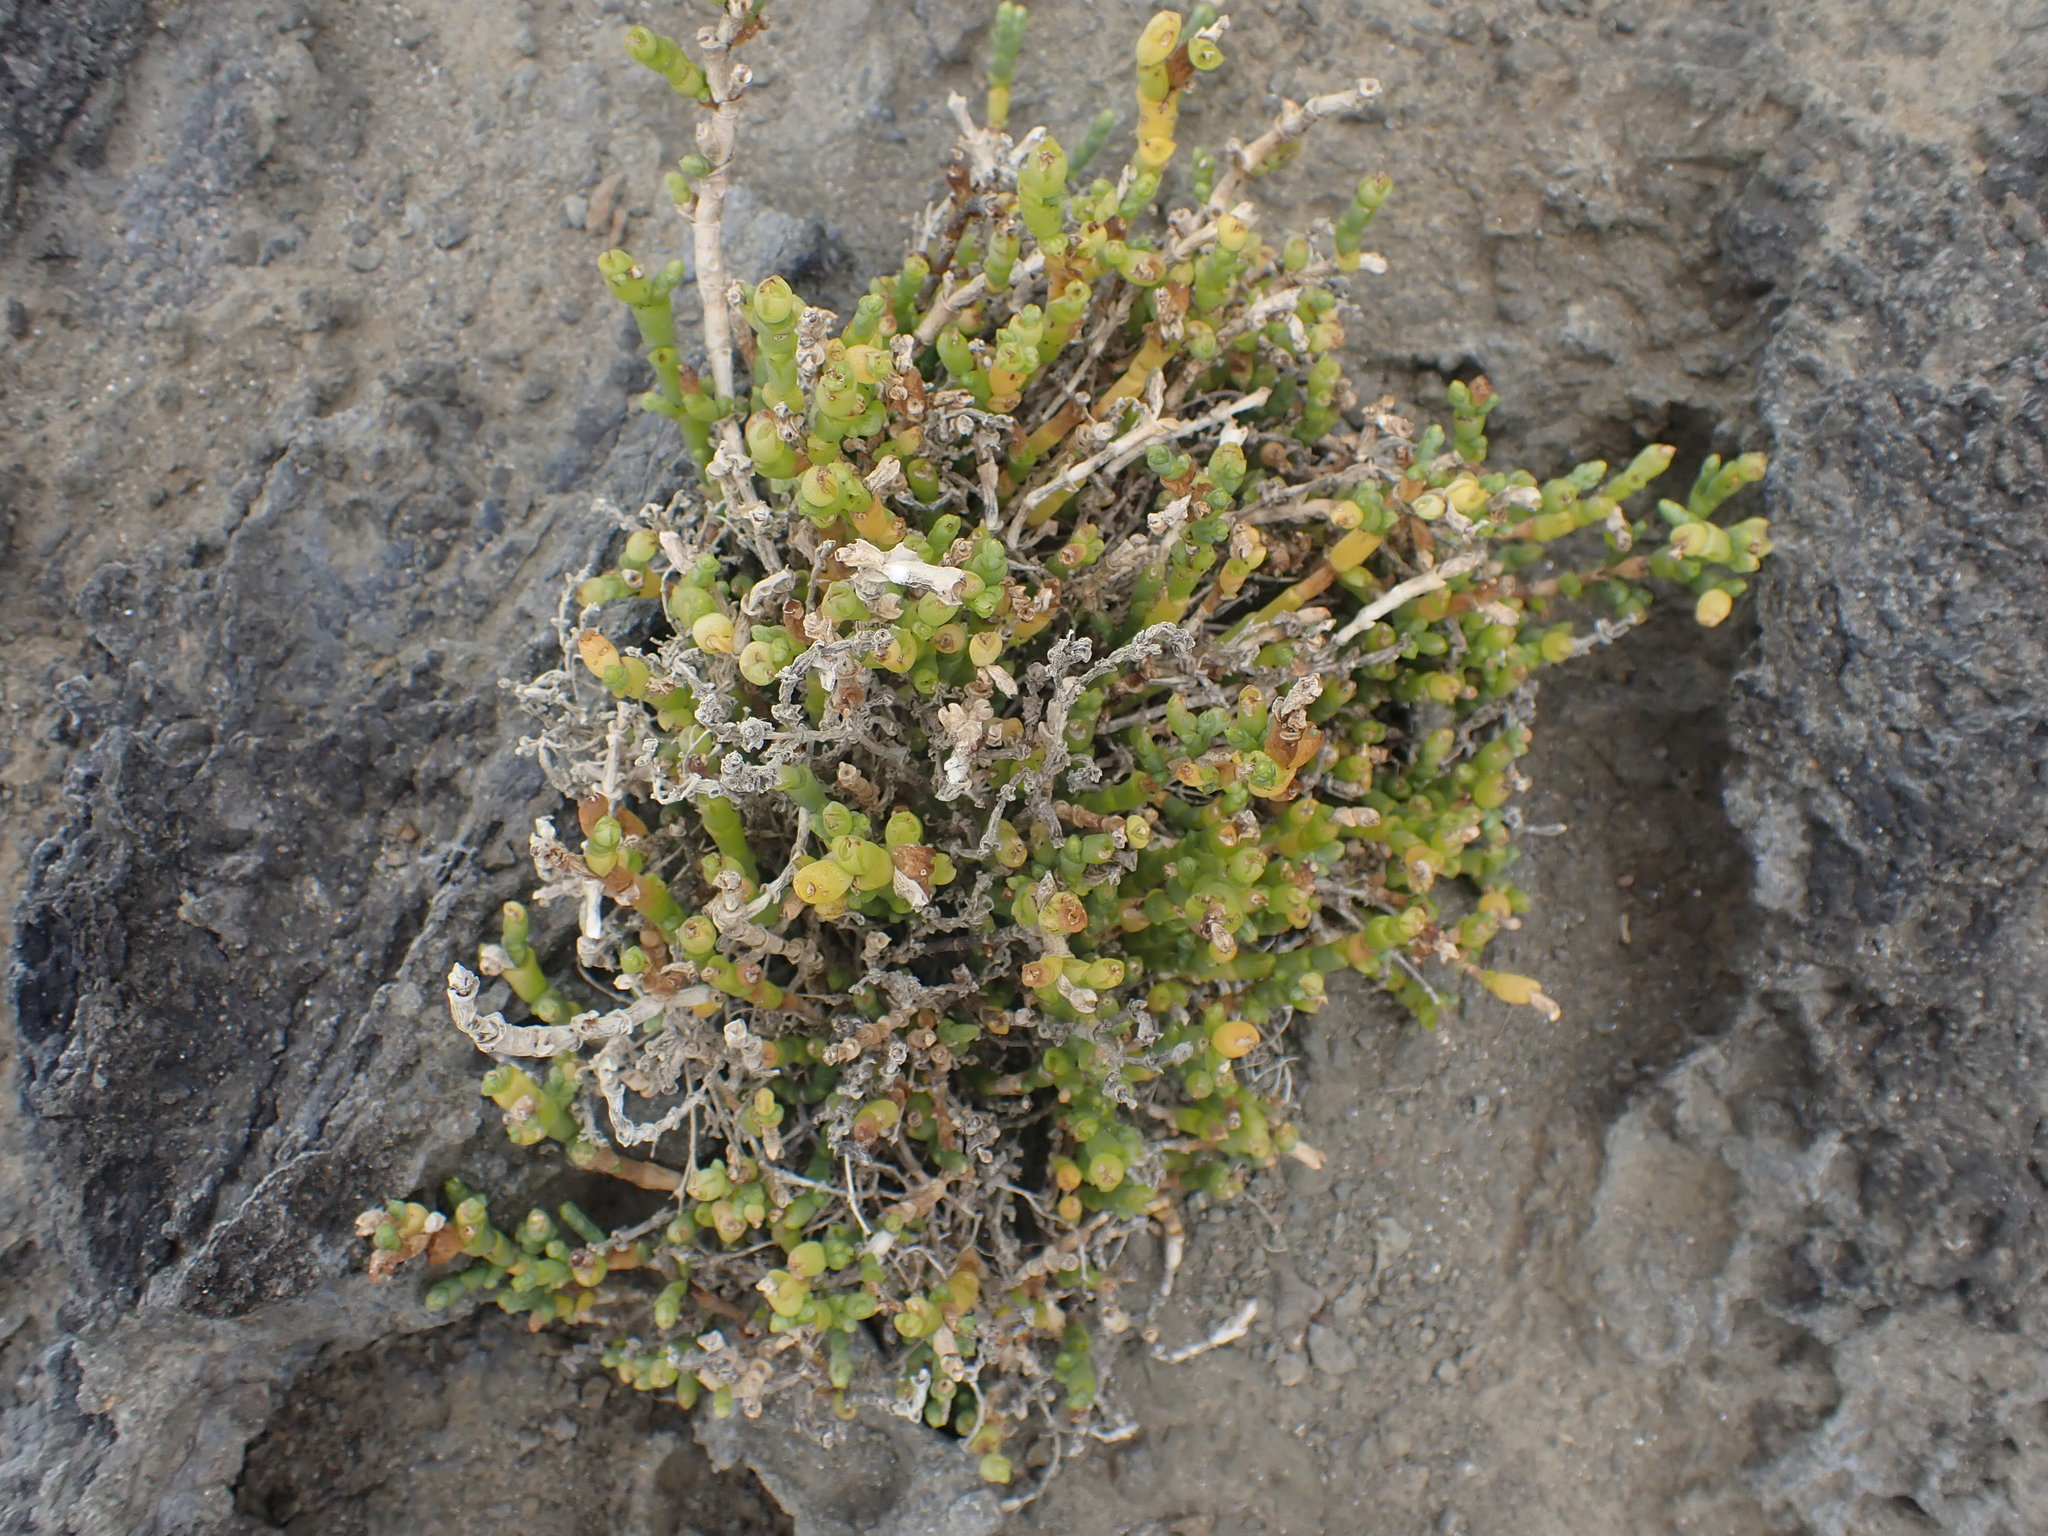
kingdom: Plantae
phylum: Tracheophyta
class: Magnoliopsida
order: Caryophyllales
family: Amaranthaceae
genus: Salicornia
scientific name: Salicornia quinqueflora
